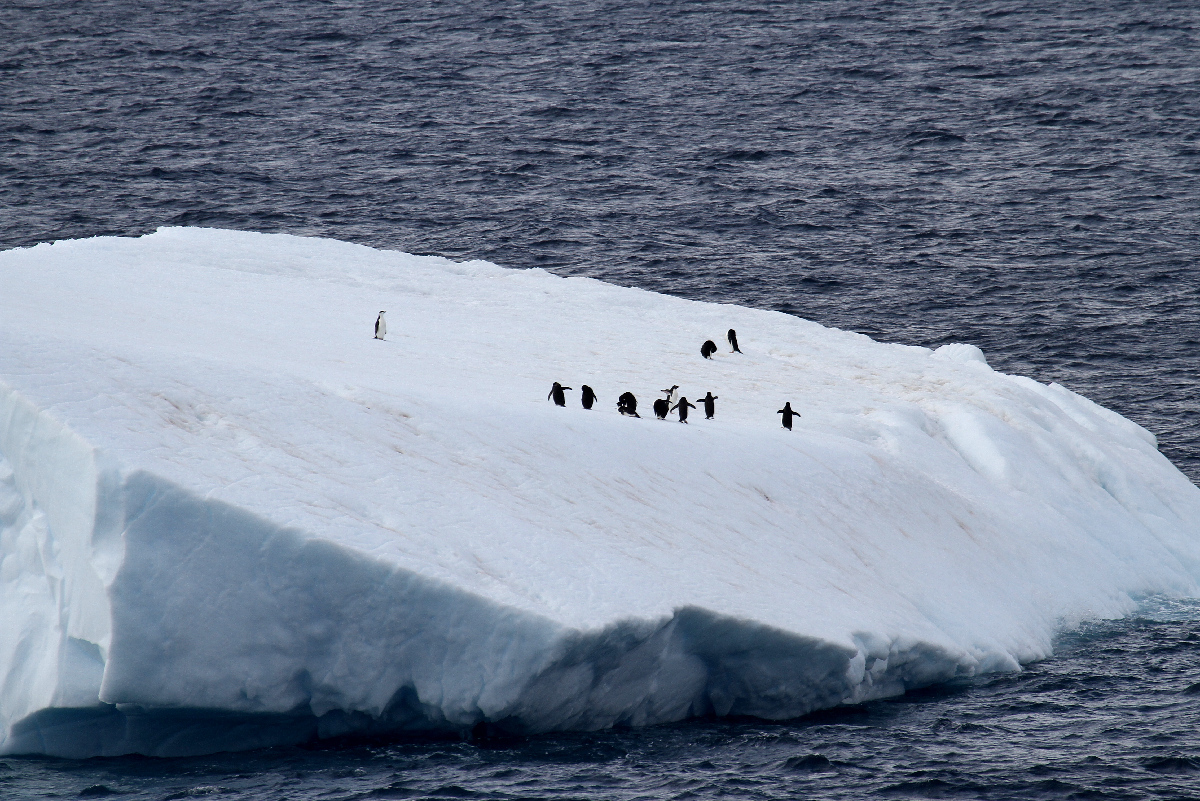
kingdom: Animalia
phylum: Chordata
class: Aves
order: Sphenisciformes
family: Spheniscidae
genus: Pygoscelis
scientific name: Pygoscelis adeliae
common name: Adelie penguin
